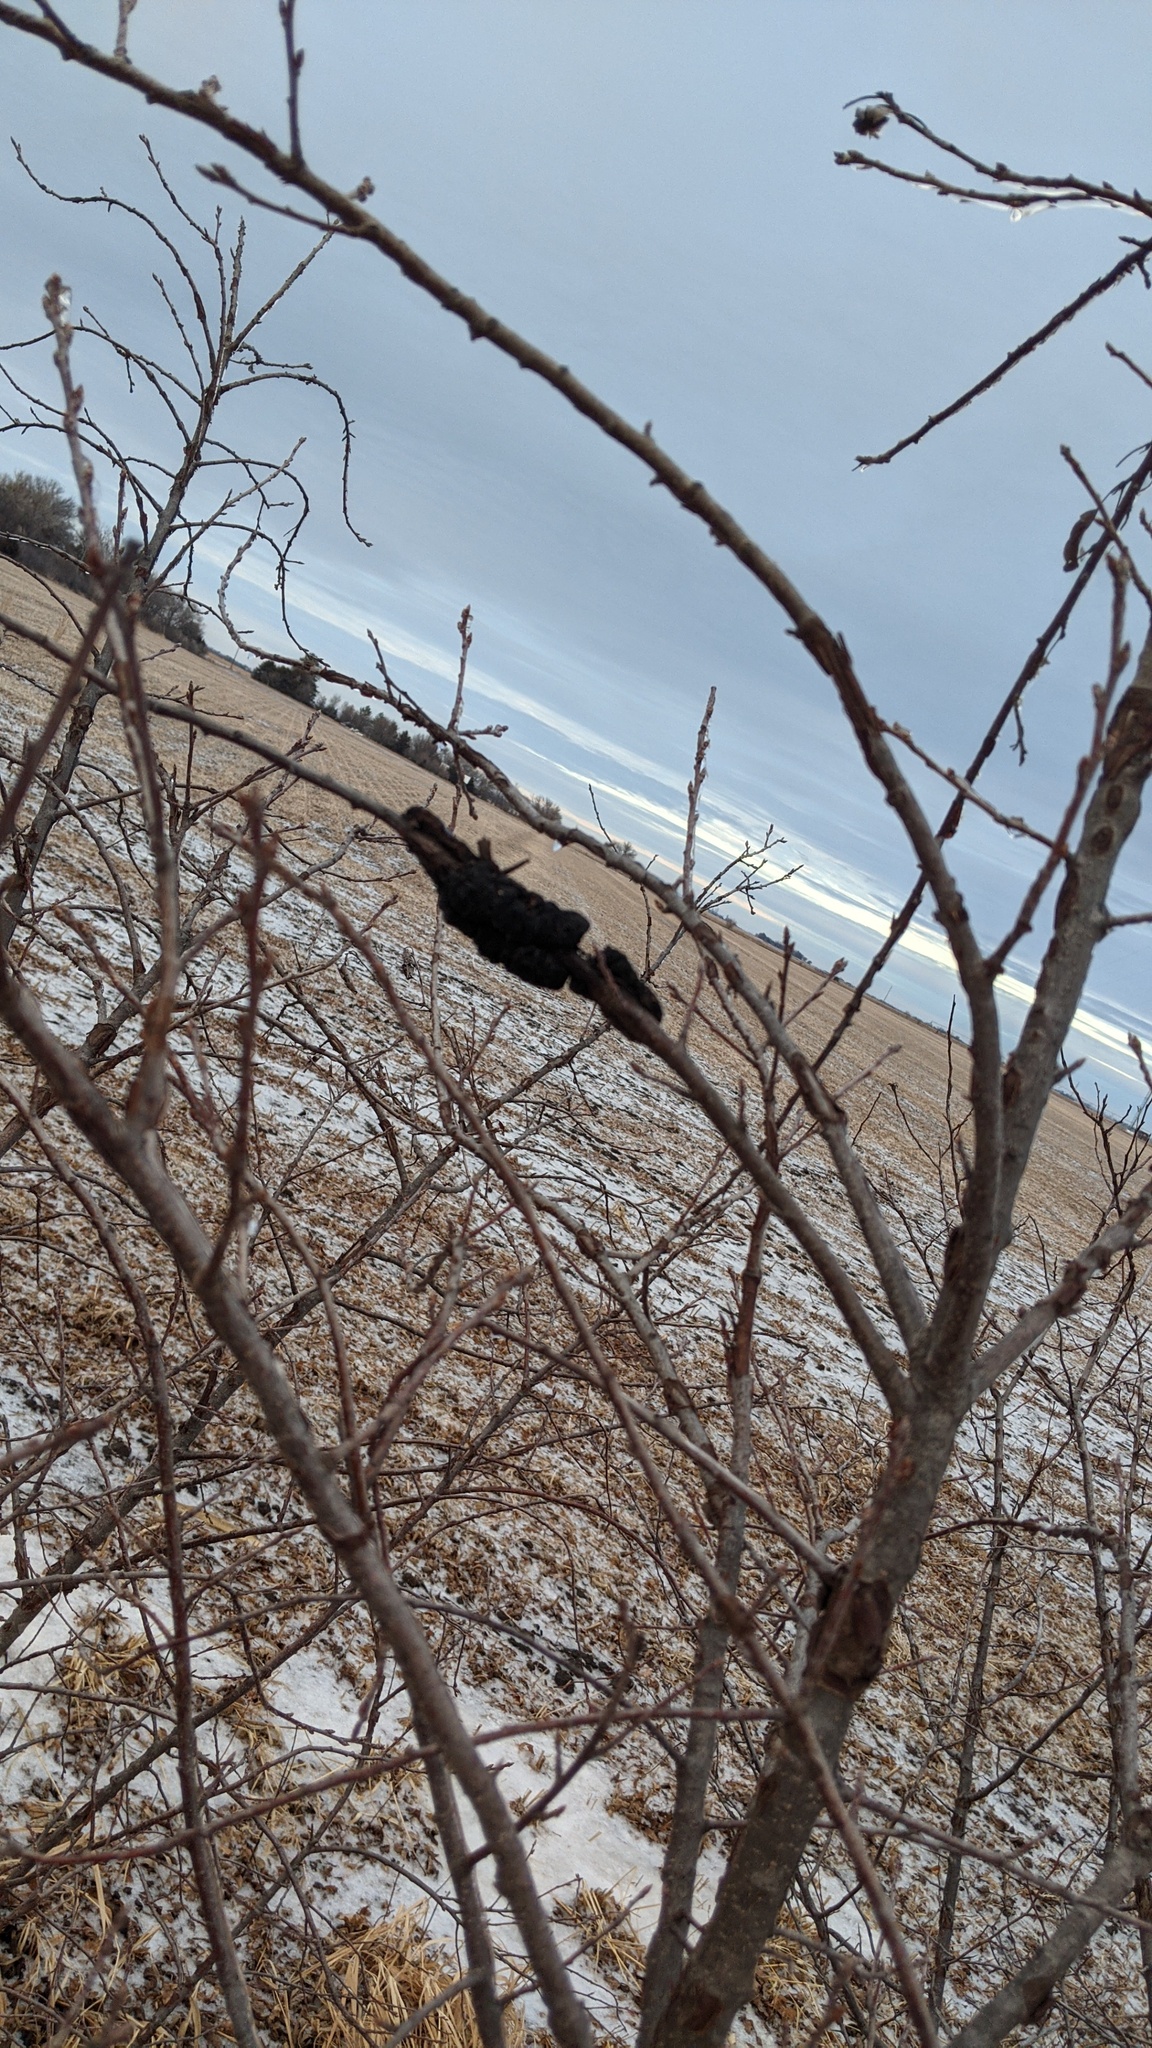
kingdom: Fungi
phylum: Ascomycota
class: Dothideomycetes
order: Venturiales
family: Venturiaceae
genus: Apiosporina
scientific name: Apiosporina morbosa
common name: Black knot
